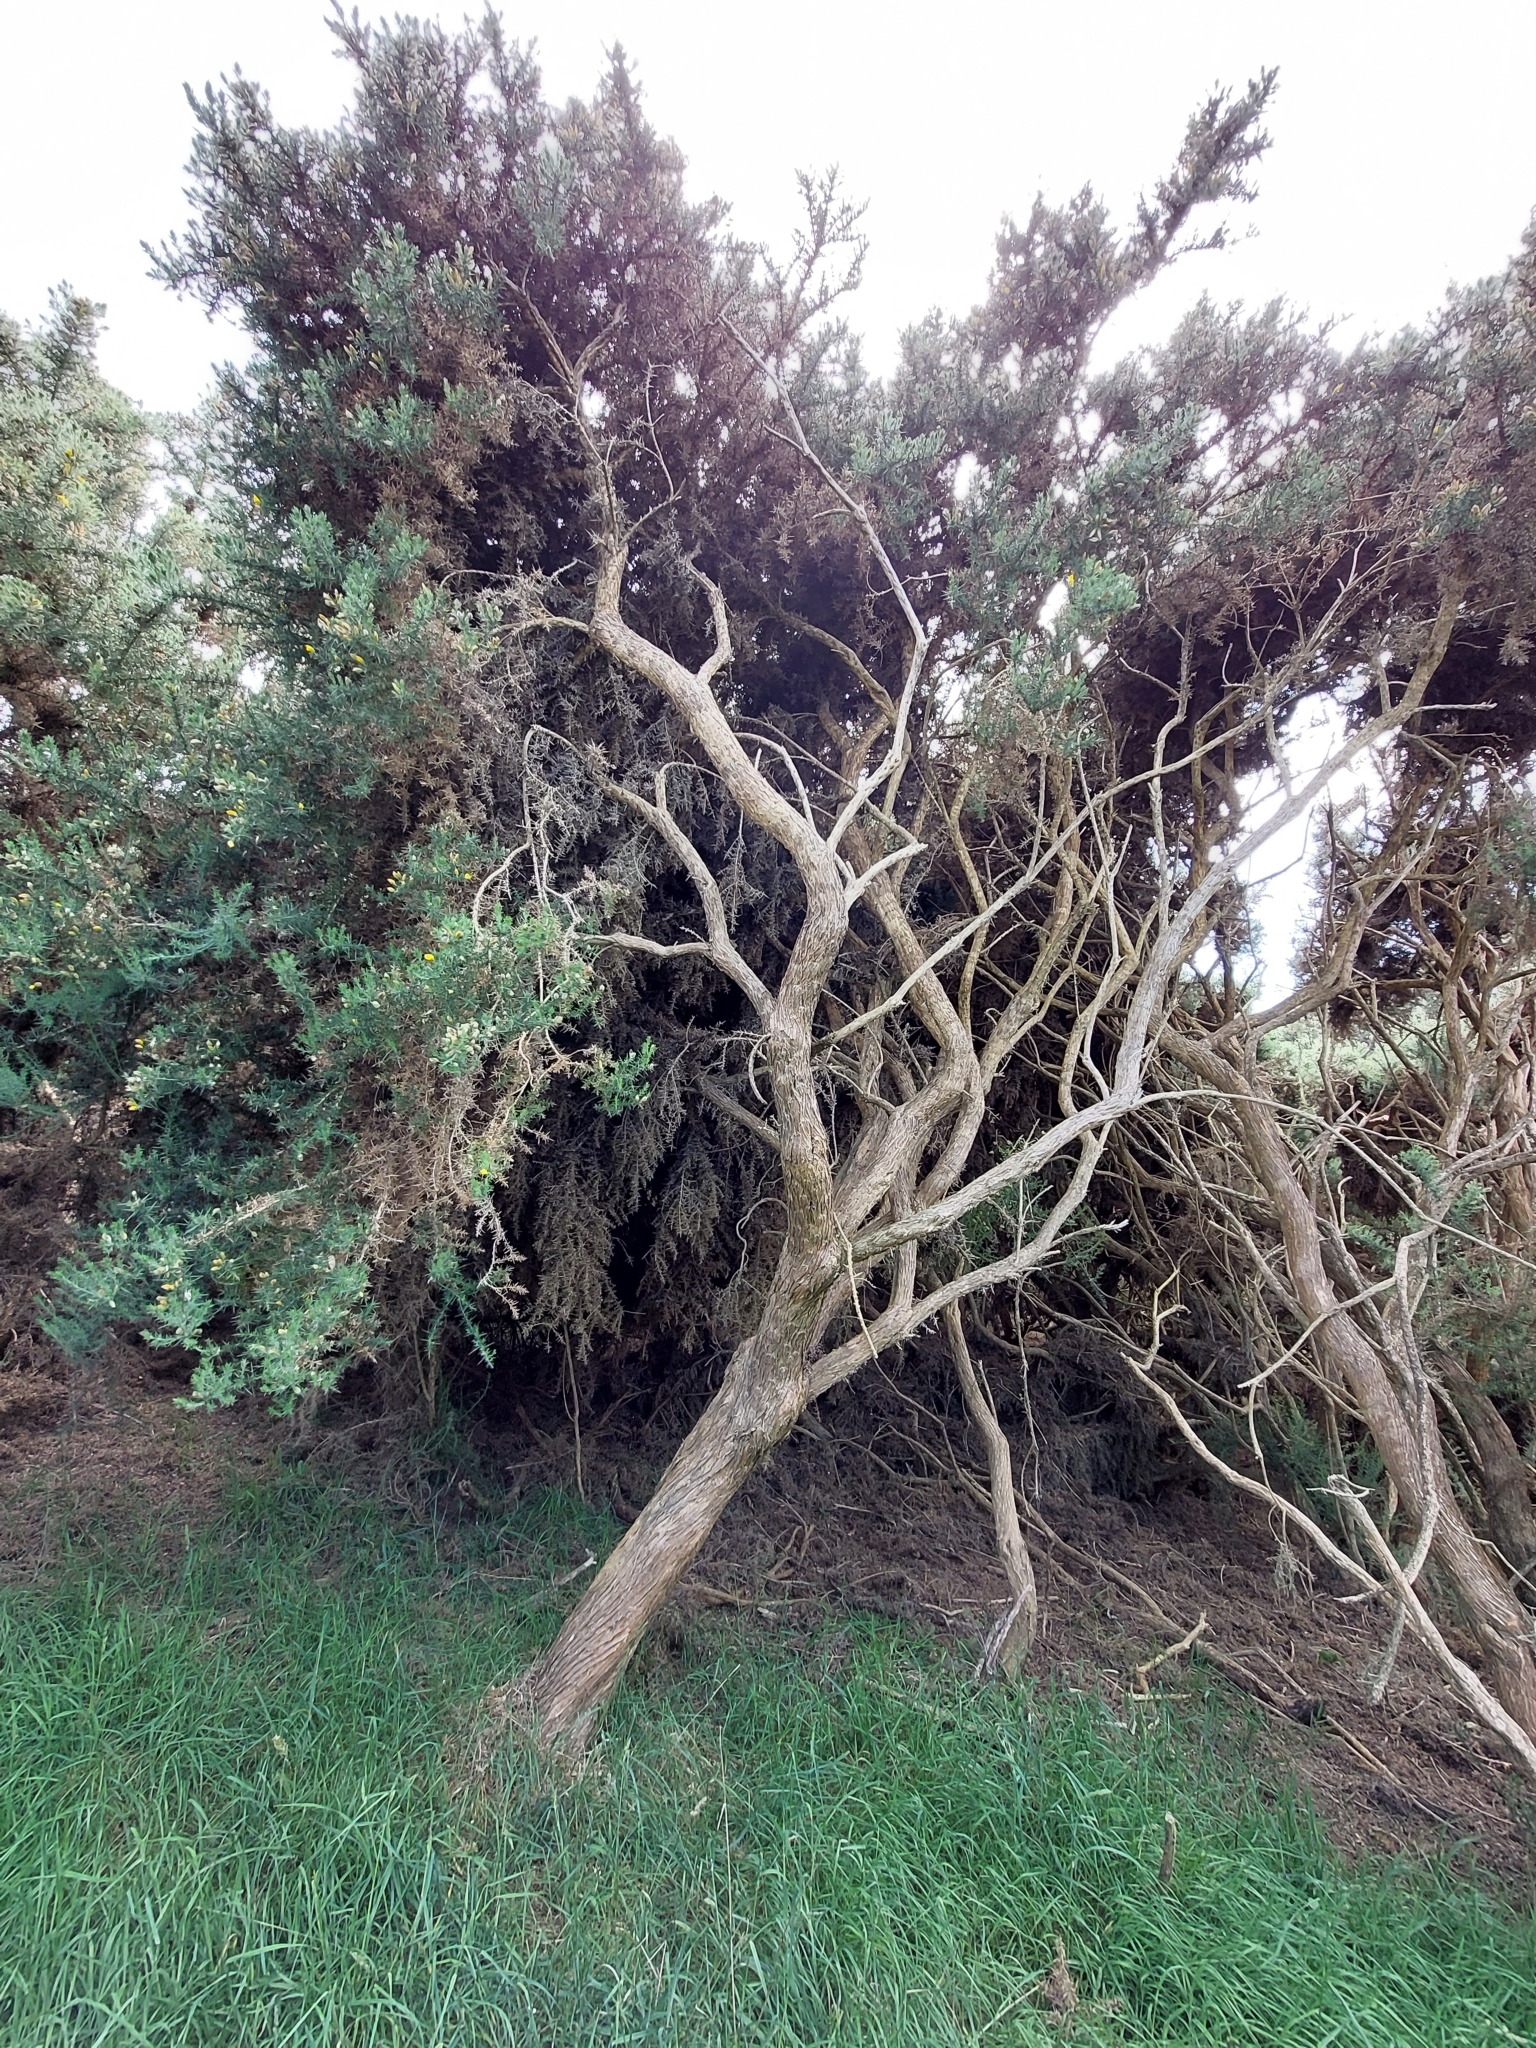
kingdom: Plantae
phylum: Tracheophyta
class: Magnoliopsida
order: Fabales
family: Fabaceae
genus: Ulex
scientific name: Ulex europaeus
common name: Common gorse
